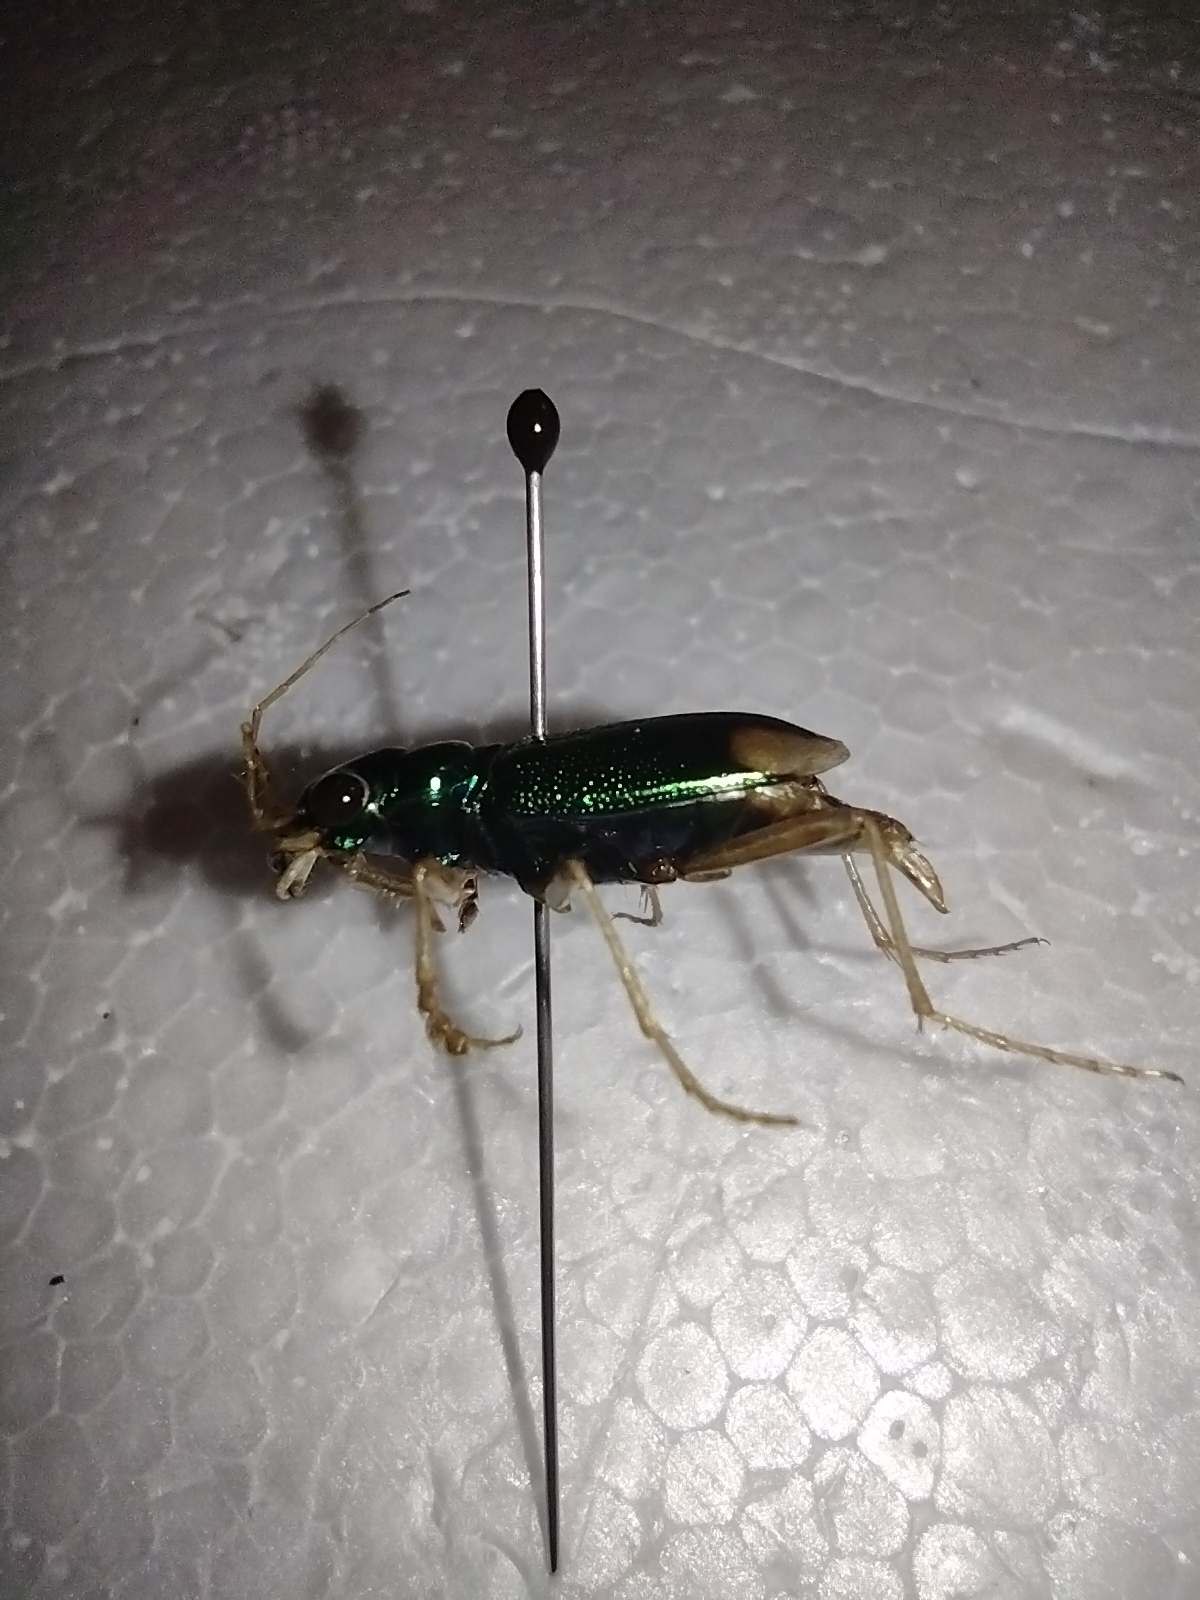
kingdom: Animalia
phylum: Arthropoda
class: Insecta
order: Coleoptera
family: Carabidae
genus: Tetracha
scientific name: Tetracha carolina
